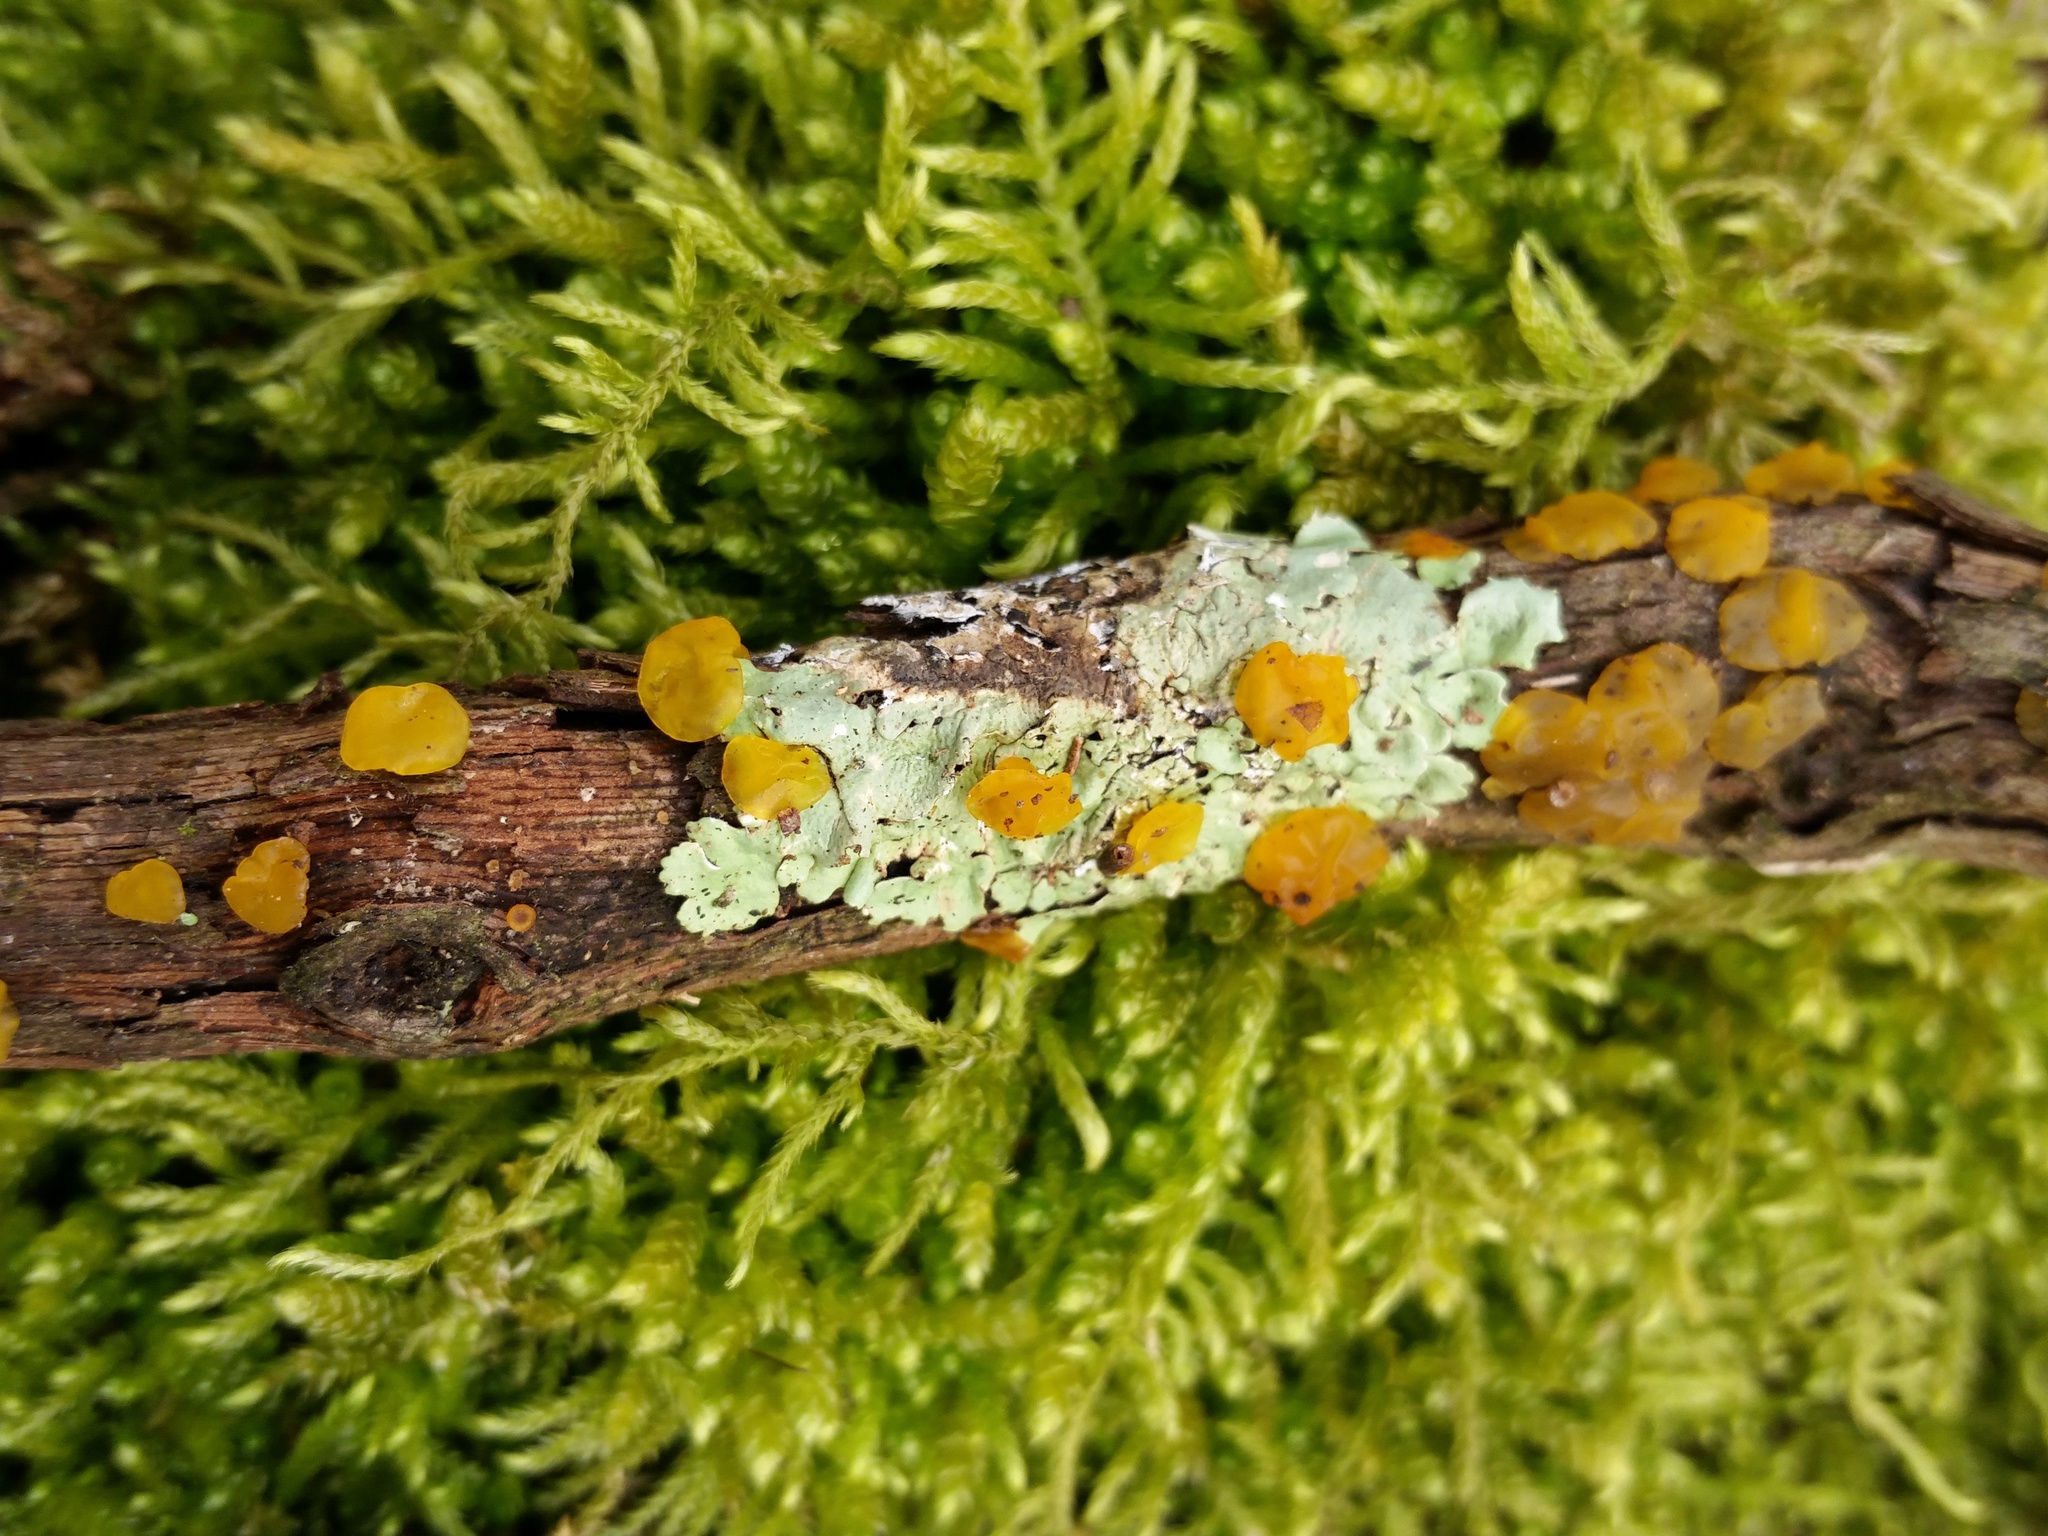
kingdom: Fungi
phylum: Basidiomycota
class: Dacrymycetes
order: Dacrymycetales
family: Dacrymycetaceae
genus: Dacrymyces
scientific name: Dacrymyces capitatus
